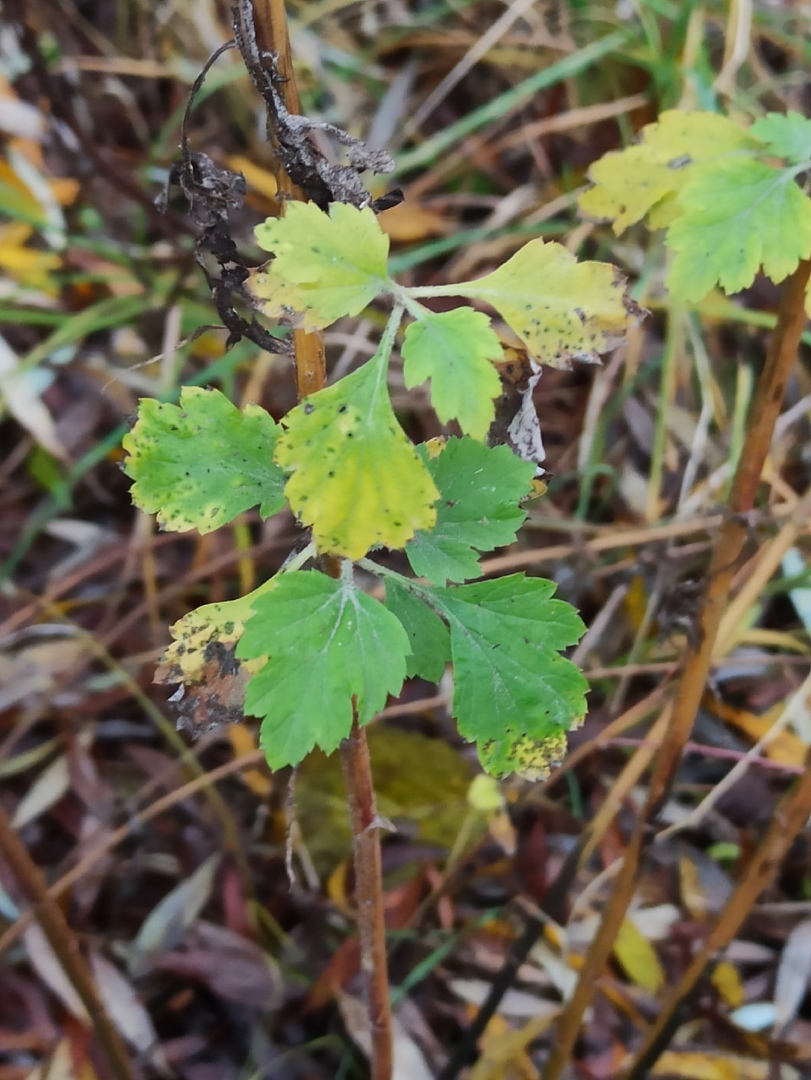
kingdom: Plantae
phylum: Tracheophyta
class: Magnoliopsida
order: Asterales
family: Asteraceae
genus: Artemisia
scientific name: Artemisia vulgaris
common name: Mugwort
